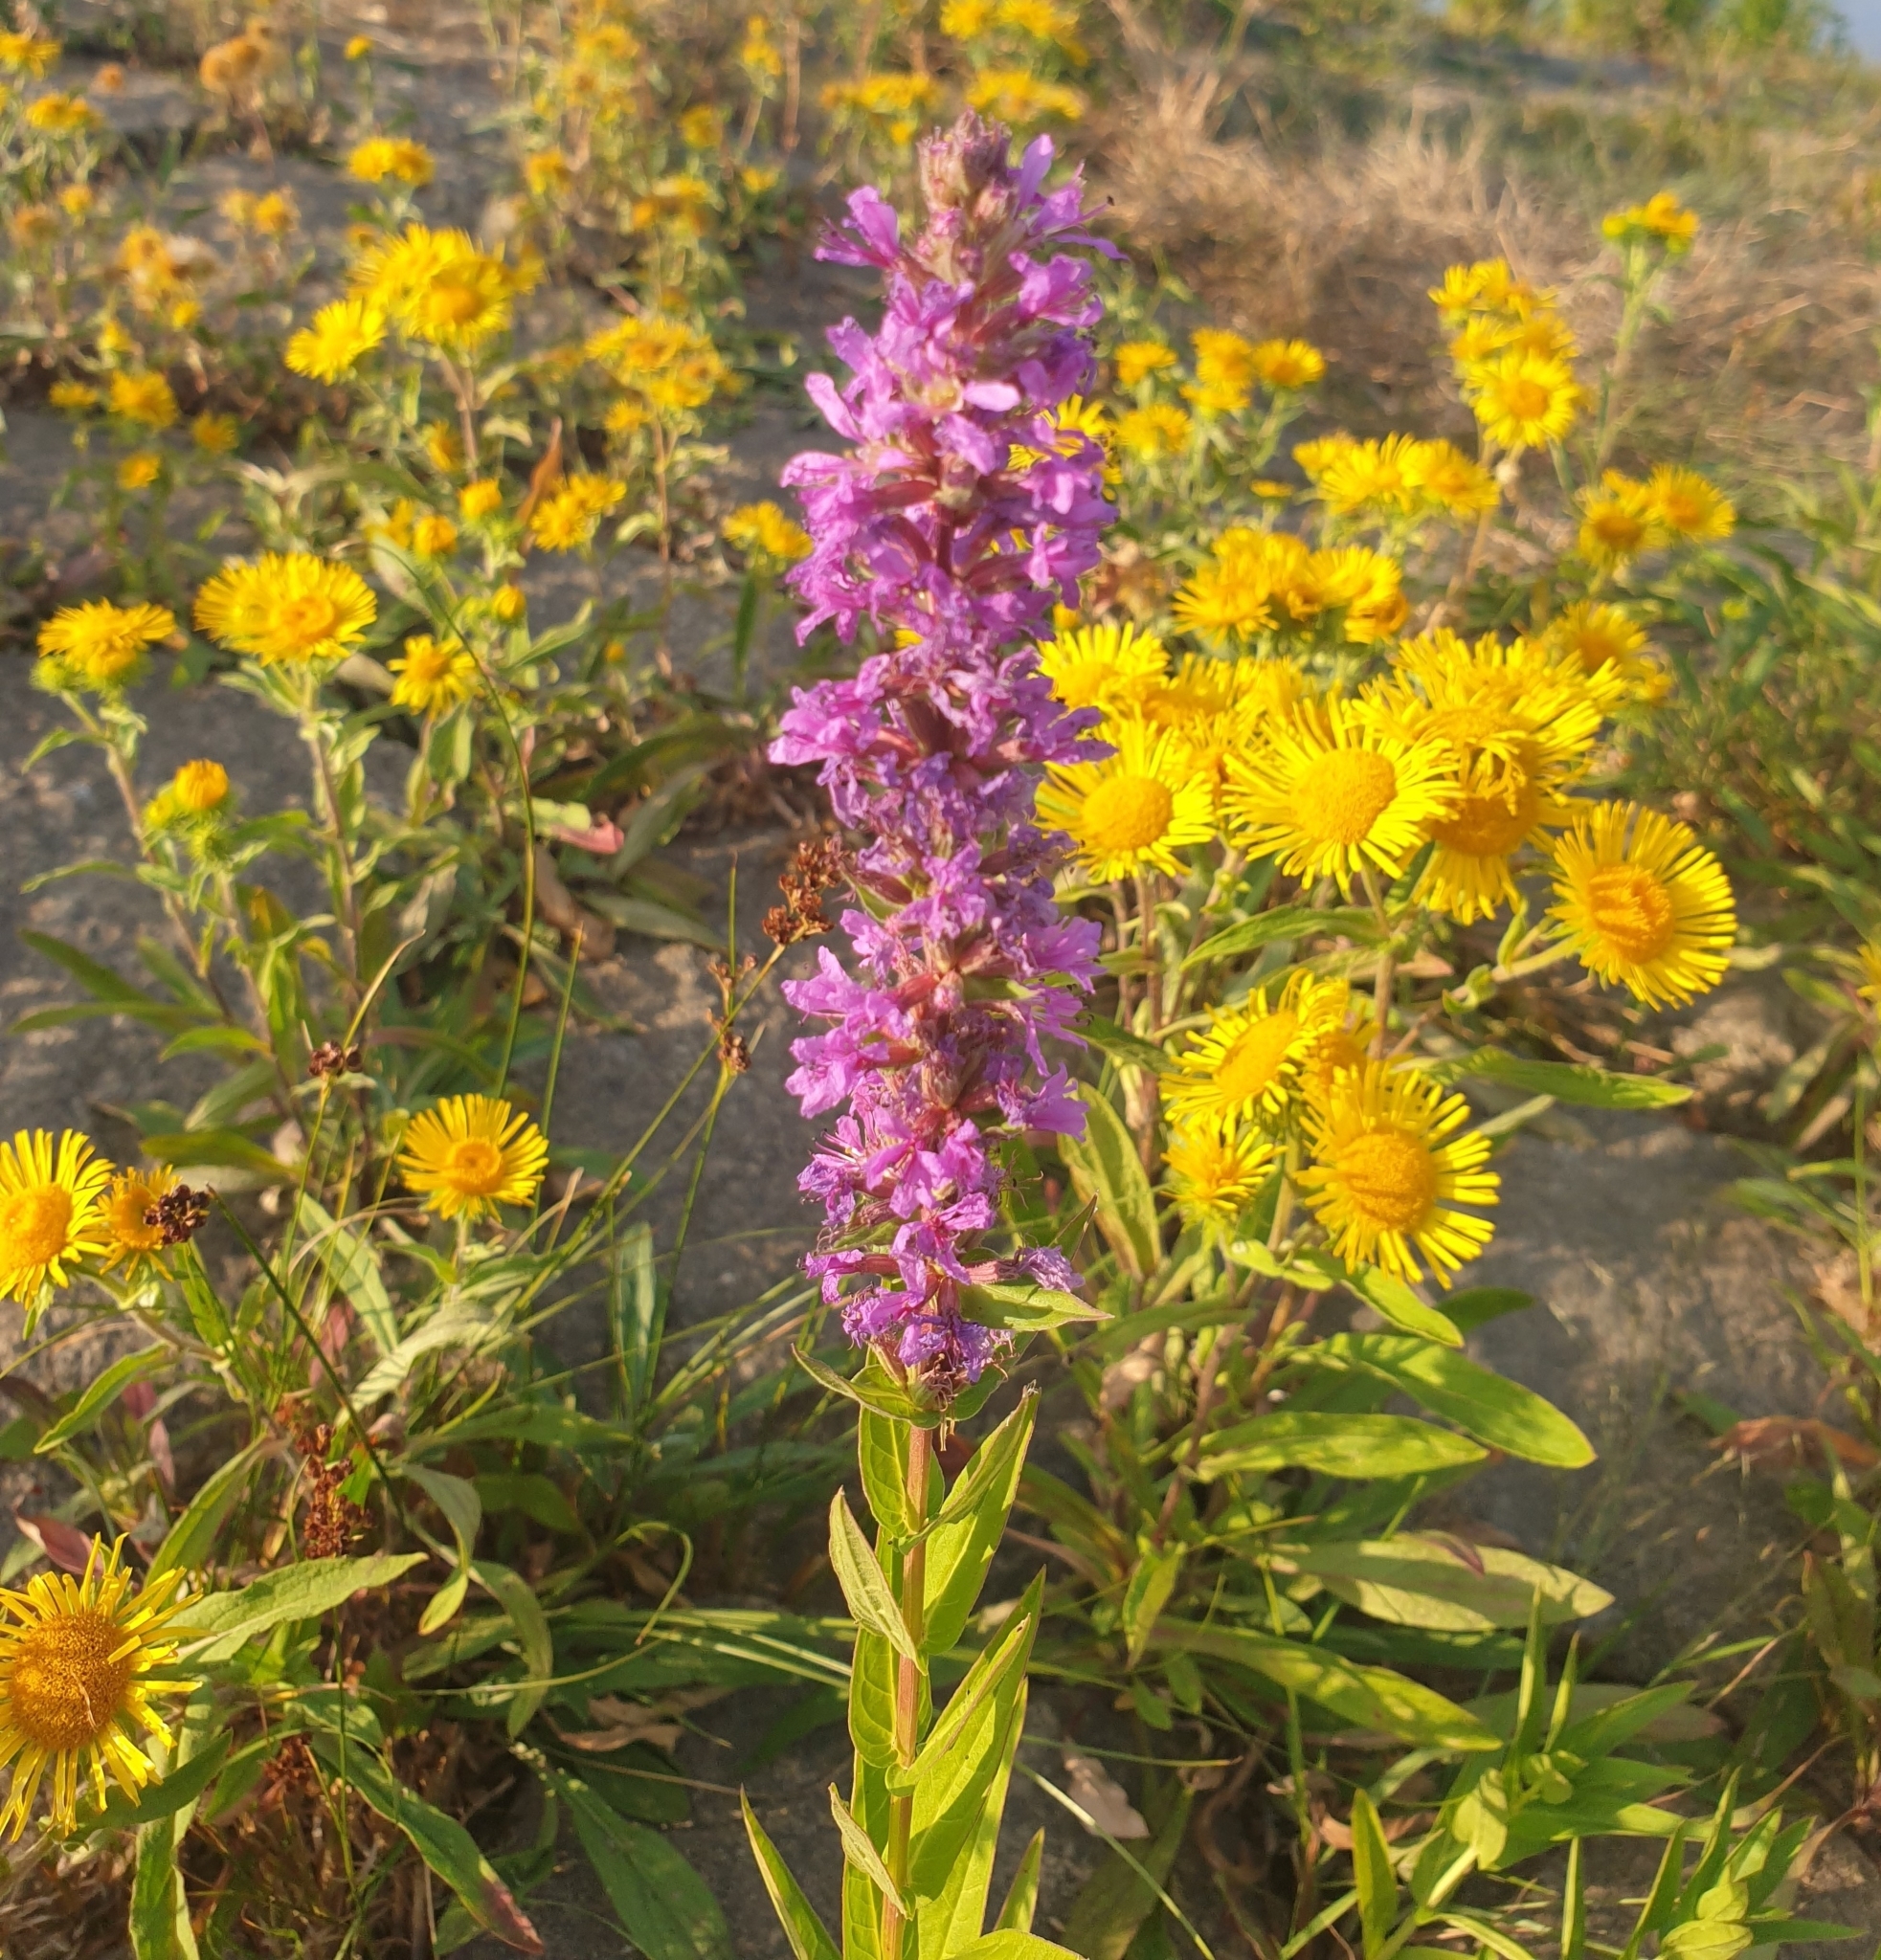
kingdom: Plantae
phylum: Tracheophyta
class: Magnoliopsida
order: Myrtales
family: Lythraceae
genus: Lythrum
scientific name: Lythrum salicaria
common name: Purple loosestrife
